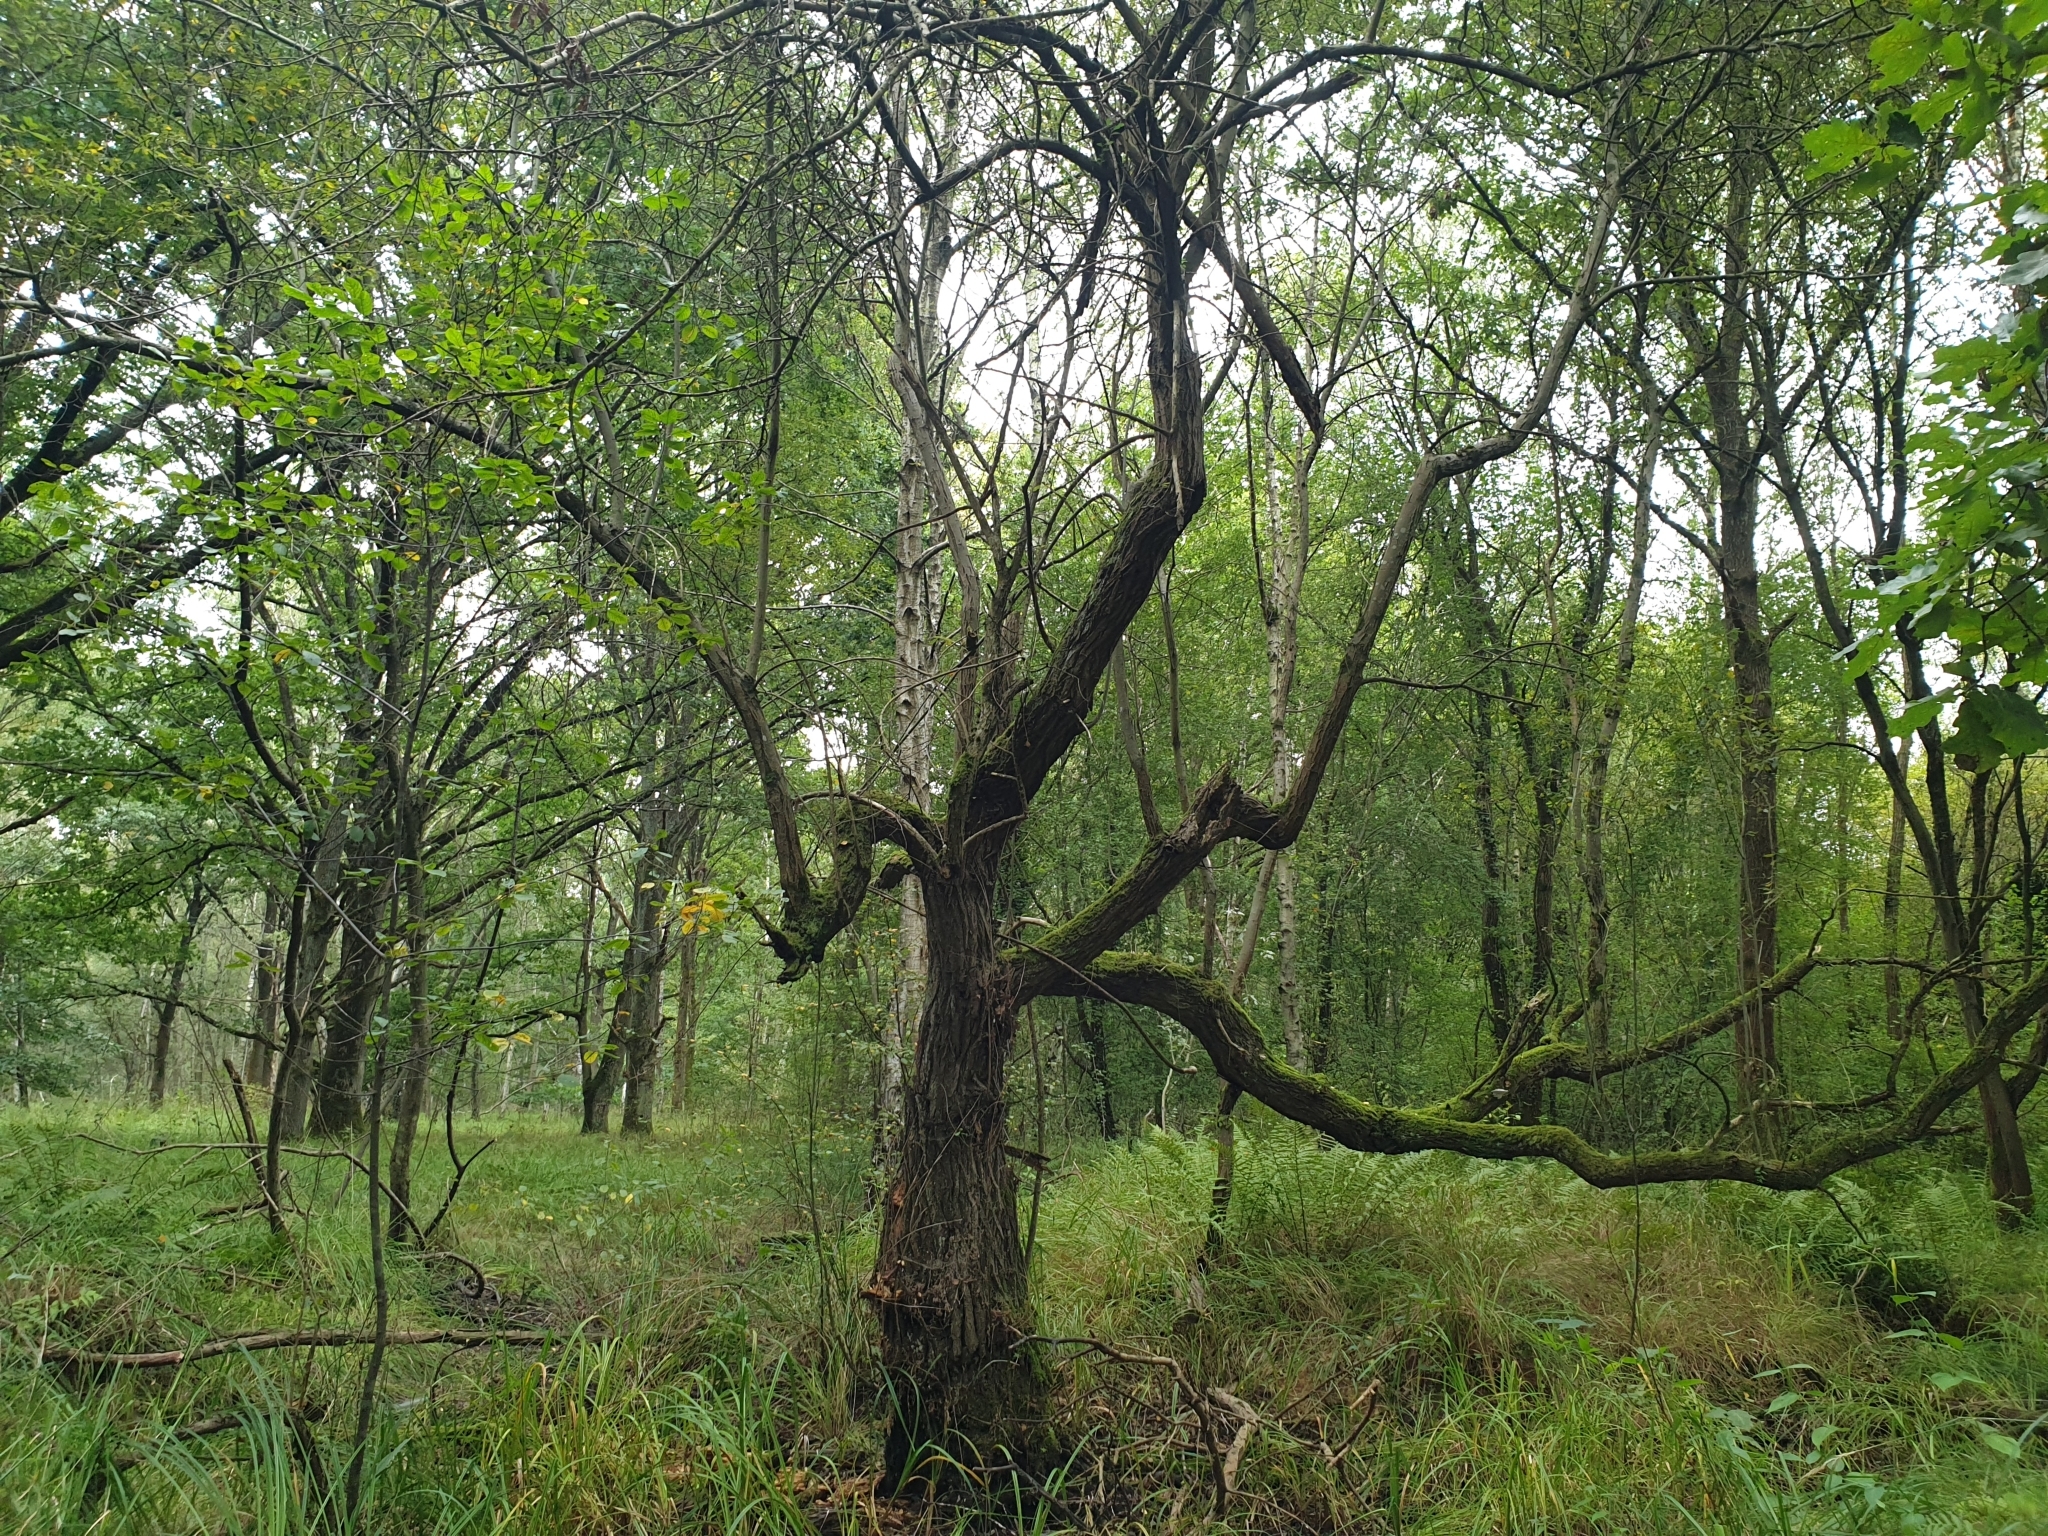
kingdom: Plantae
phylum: Tracheophyta
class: Magnoliopsida
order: Malpighiales
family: Salicaceae
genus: Salix
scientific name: Salix caprea
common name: Goat willow
